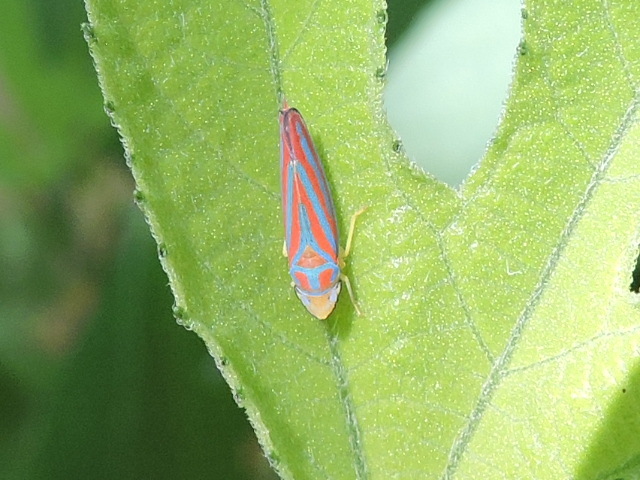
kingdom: Animalia
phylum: Arthropoda
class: Insecta
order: Hemiptera
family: Cicadellidae
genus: Graphocephala
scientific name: Graphocephala coccinea
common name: Candy-striped leafhopper
